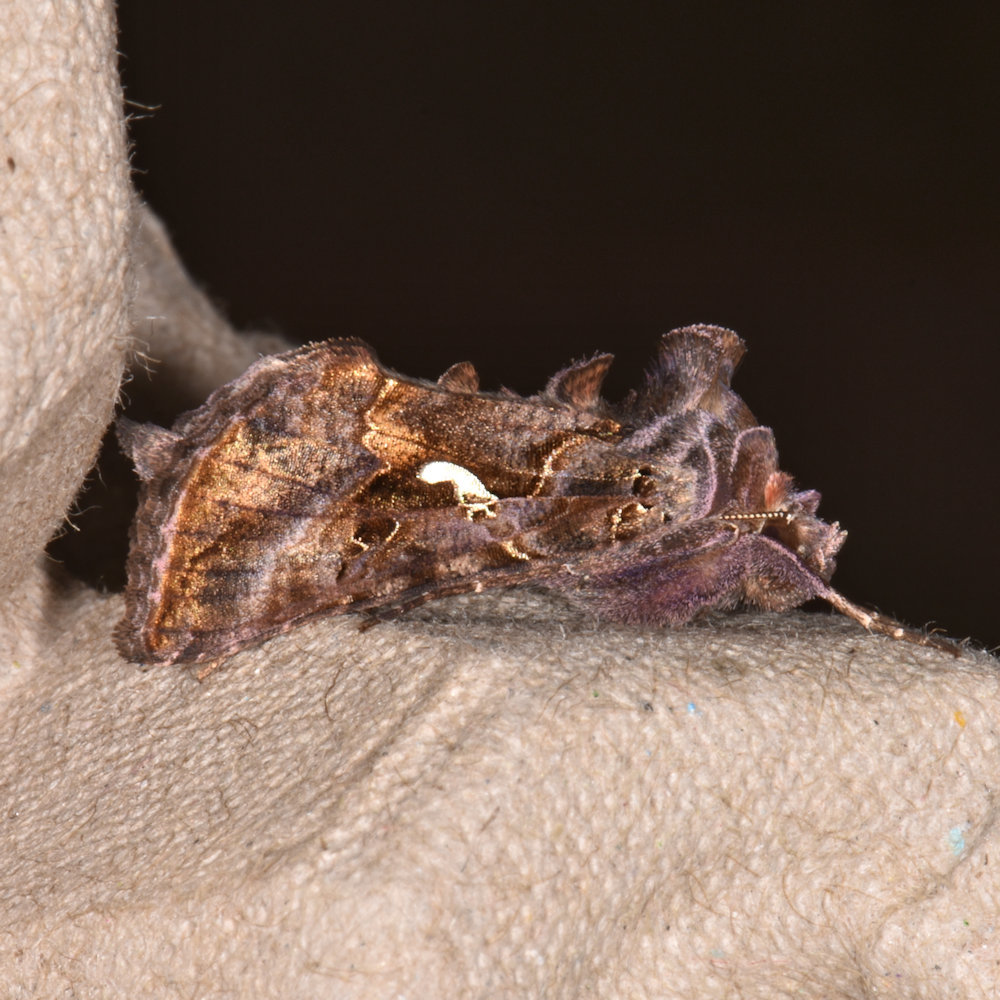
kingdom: Animalia
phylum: Arthropoda
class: Insecta
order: Lepidoptera
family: Noctuidae
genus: Autographa
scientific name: Autographa precationis
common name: Common looper moth
